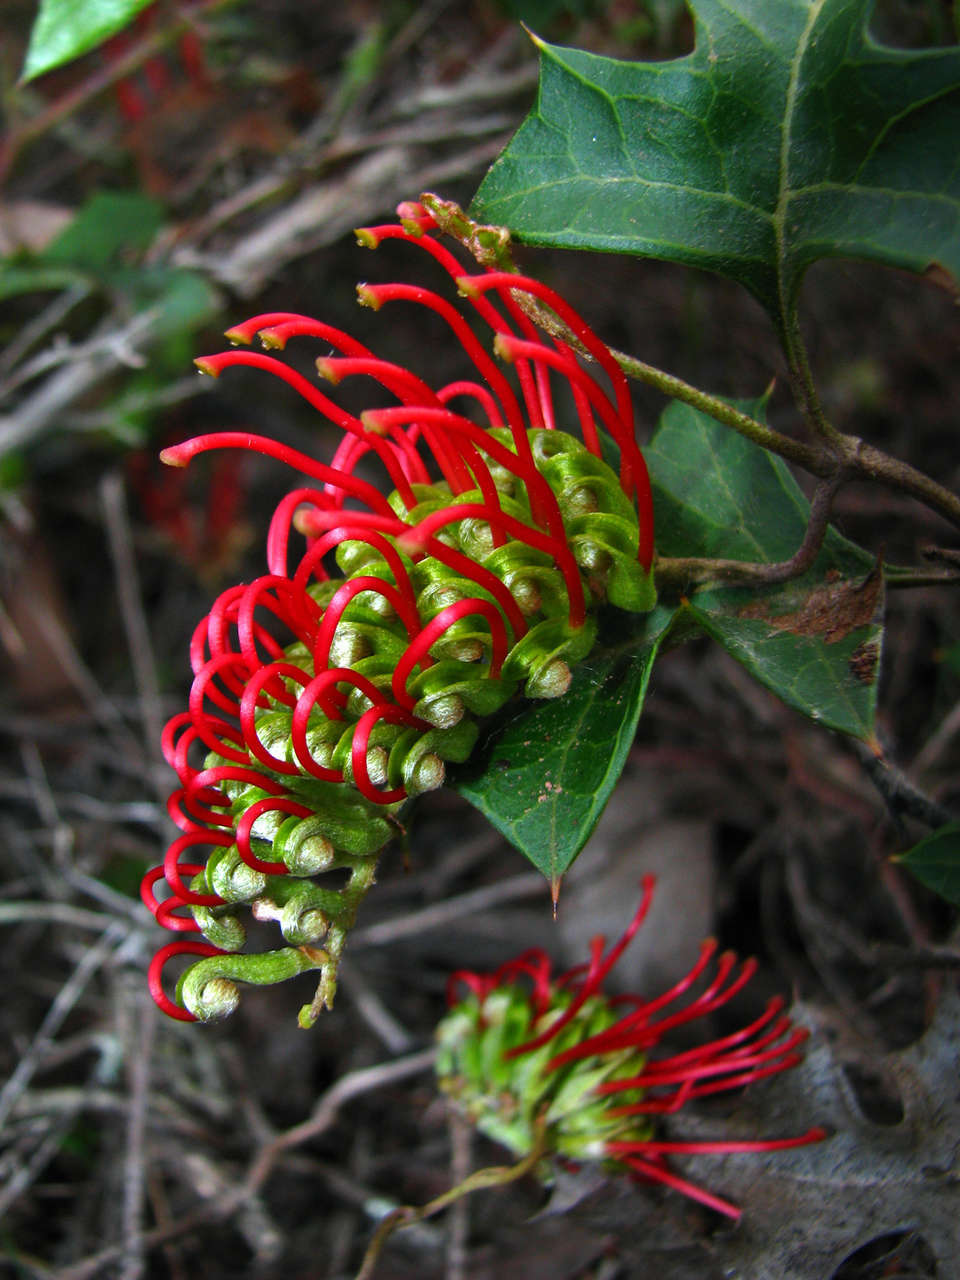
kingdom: Plantae
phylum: Tracheophyta
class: Magnoliopsida
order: Proteales
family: Proteaceae
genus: Grevillea
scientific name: Grevillea steiglitziana
